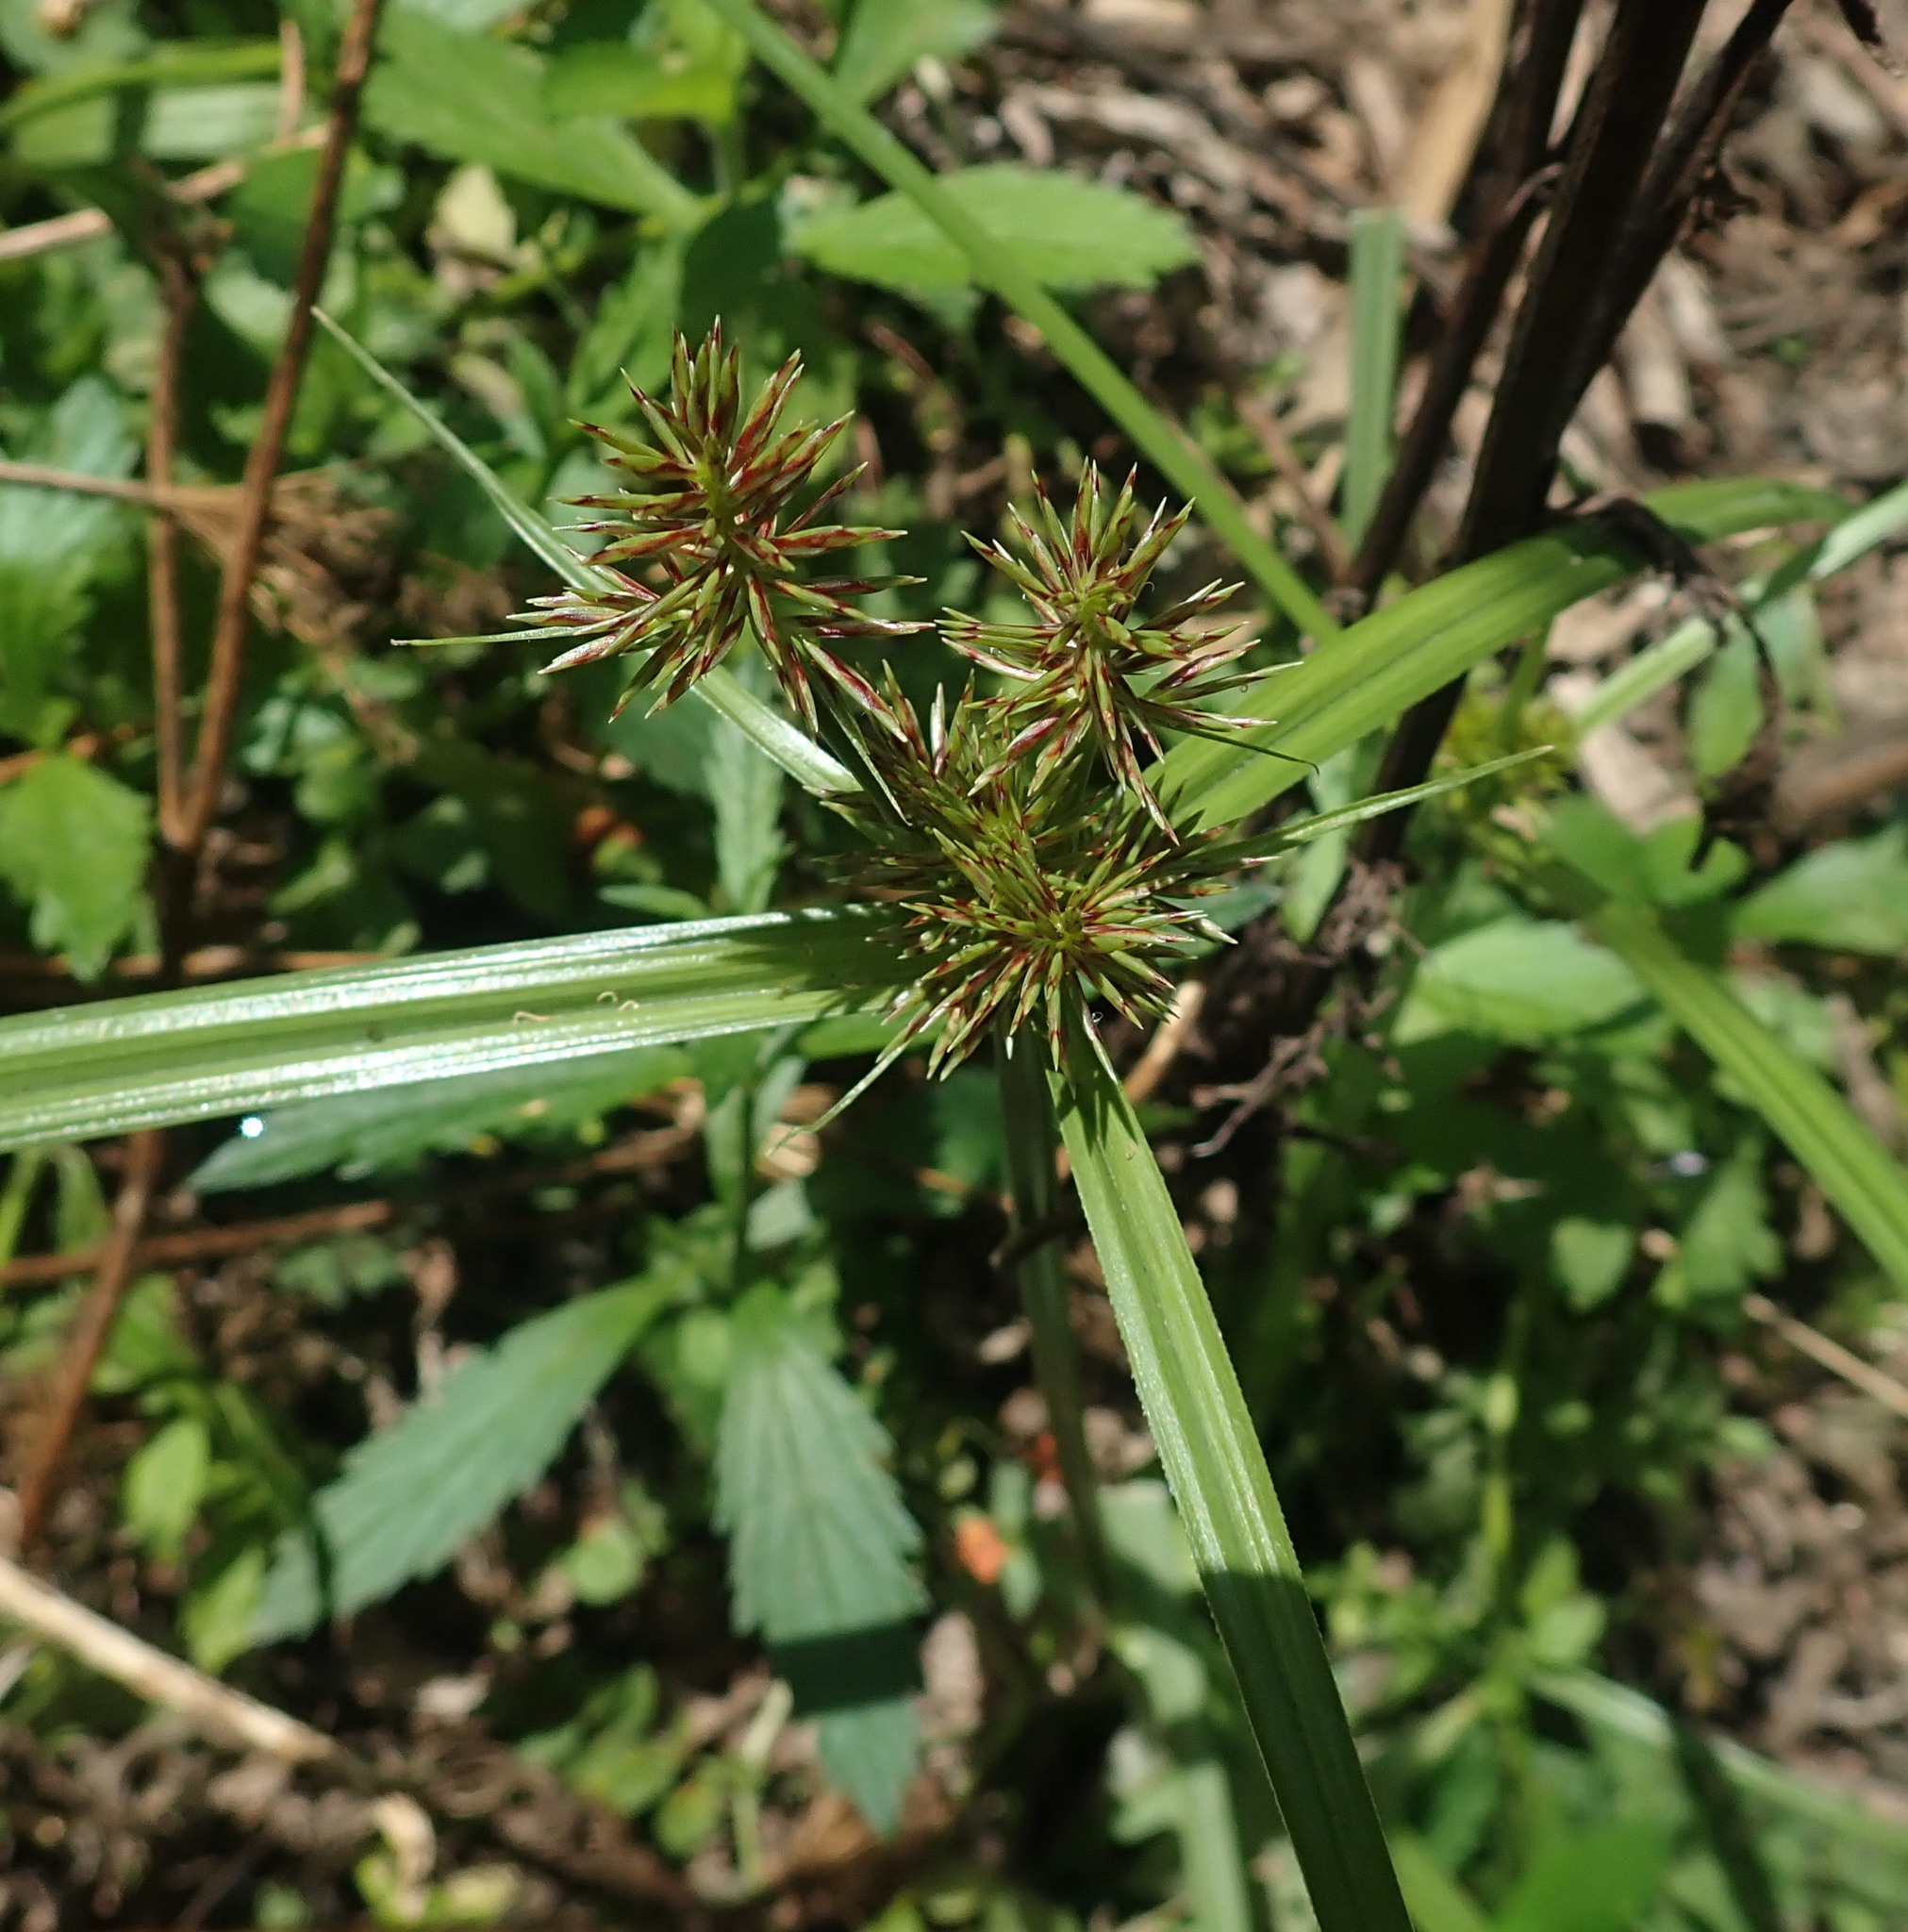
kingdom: Plantae
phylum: Tracheophyta
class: Liliopsida
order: Poales
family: Cyperaceae
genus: Cyperus
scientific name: Cyperus congestus
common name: Dense flat sedge
